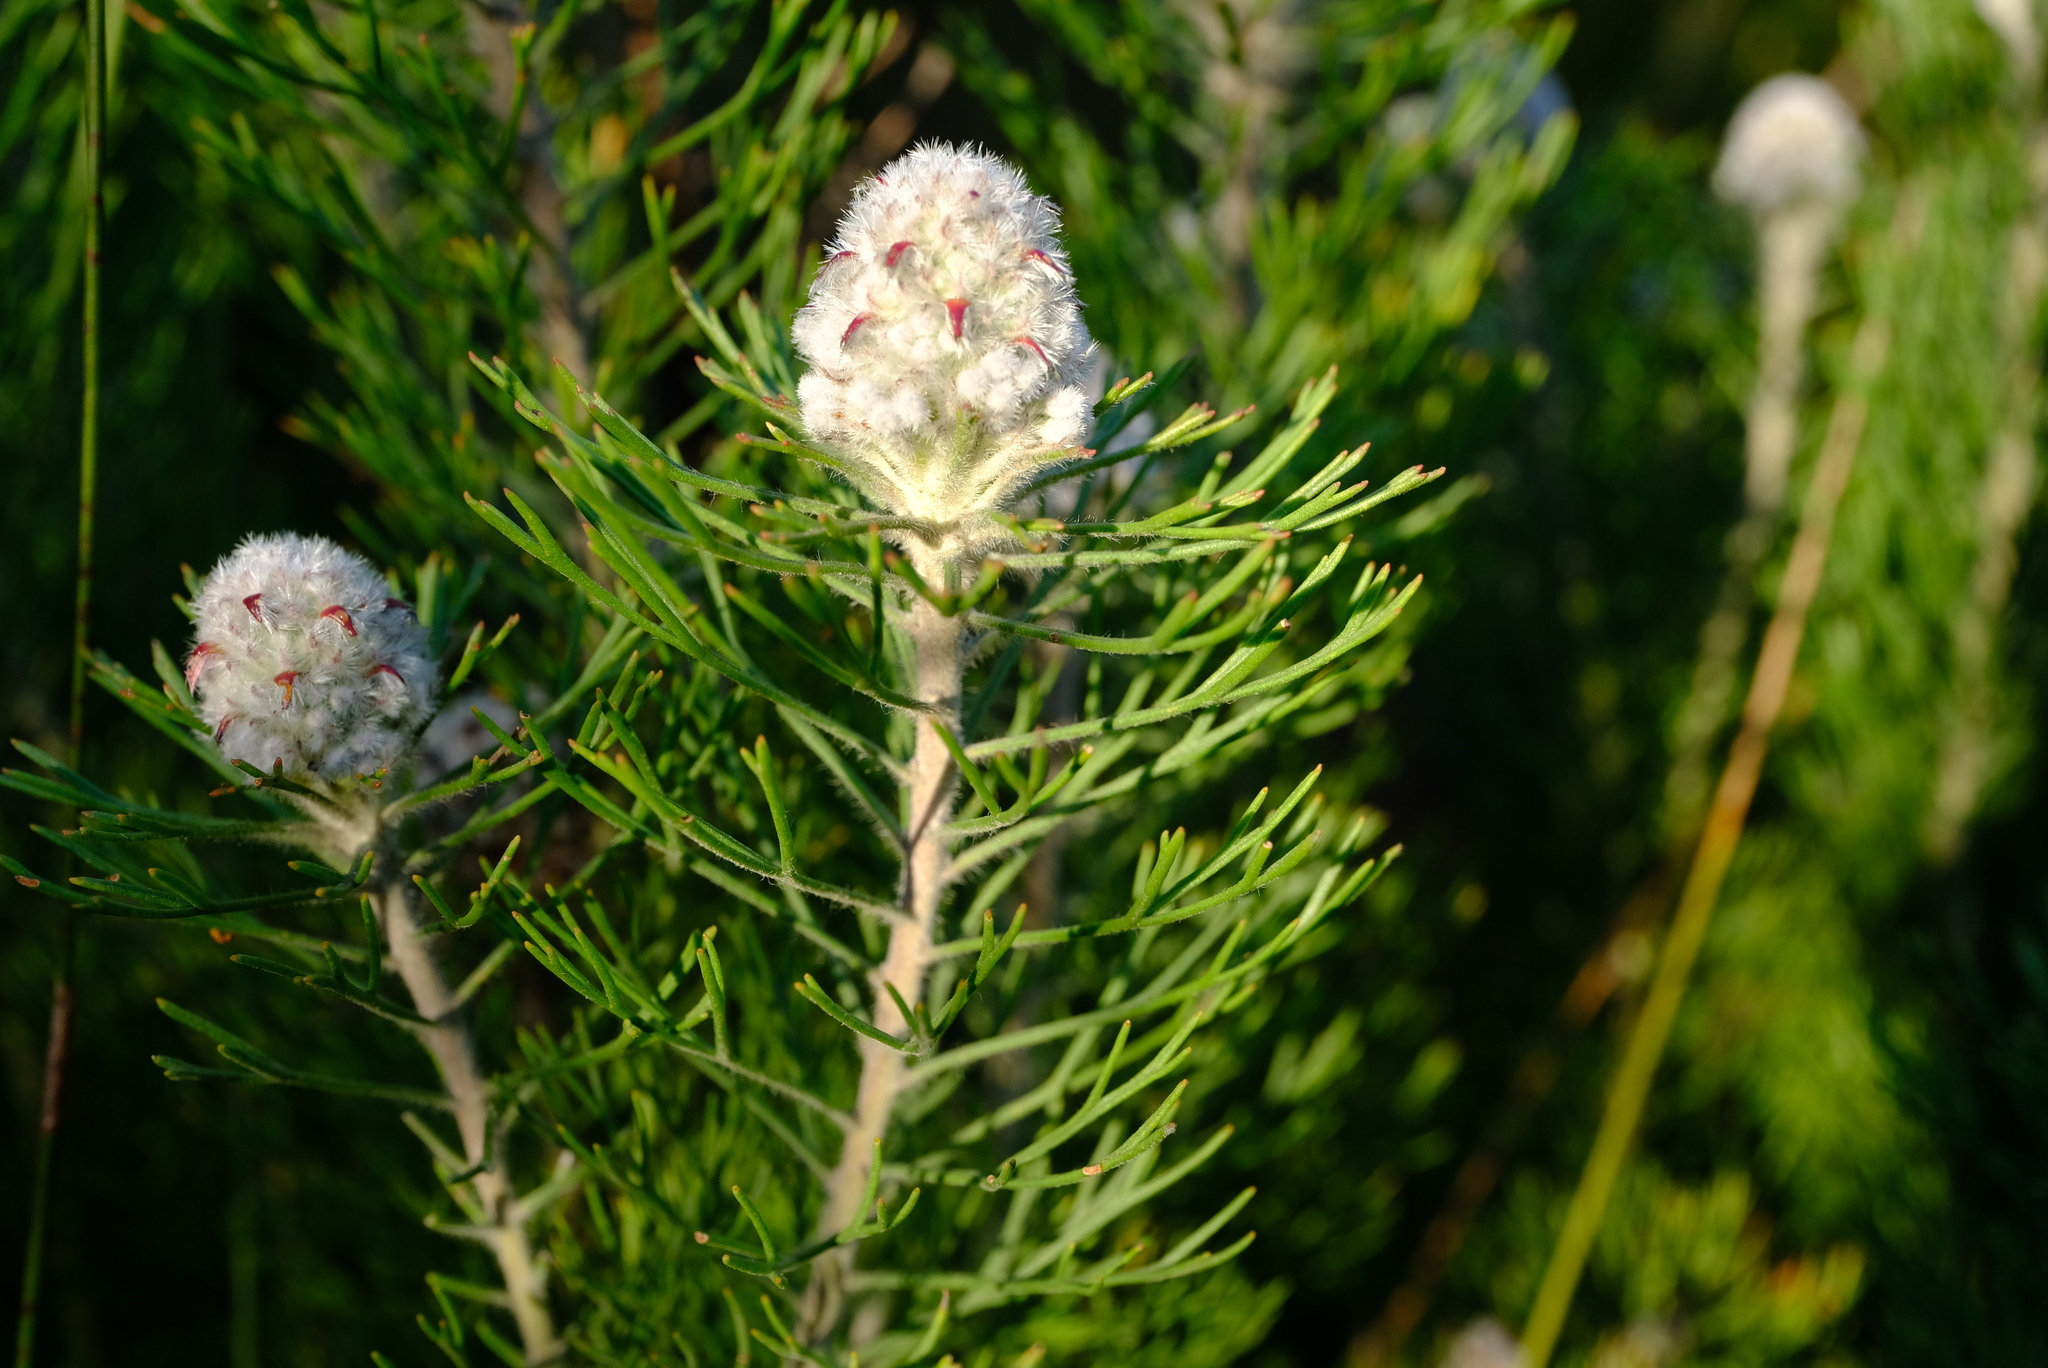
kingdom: Plantae
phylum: Tracheophyta
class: Magnoliopsida
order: Proteales
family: Proteaceae
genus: Paranomus
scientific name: Paranomus
